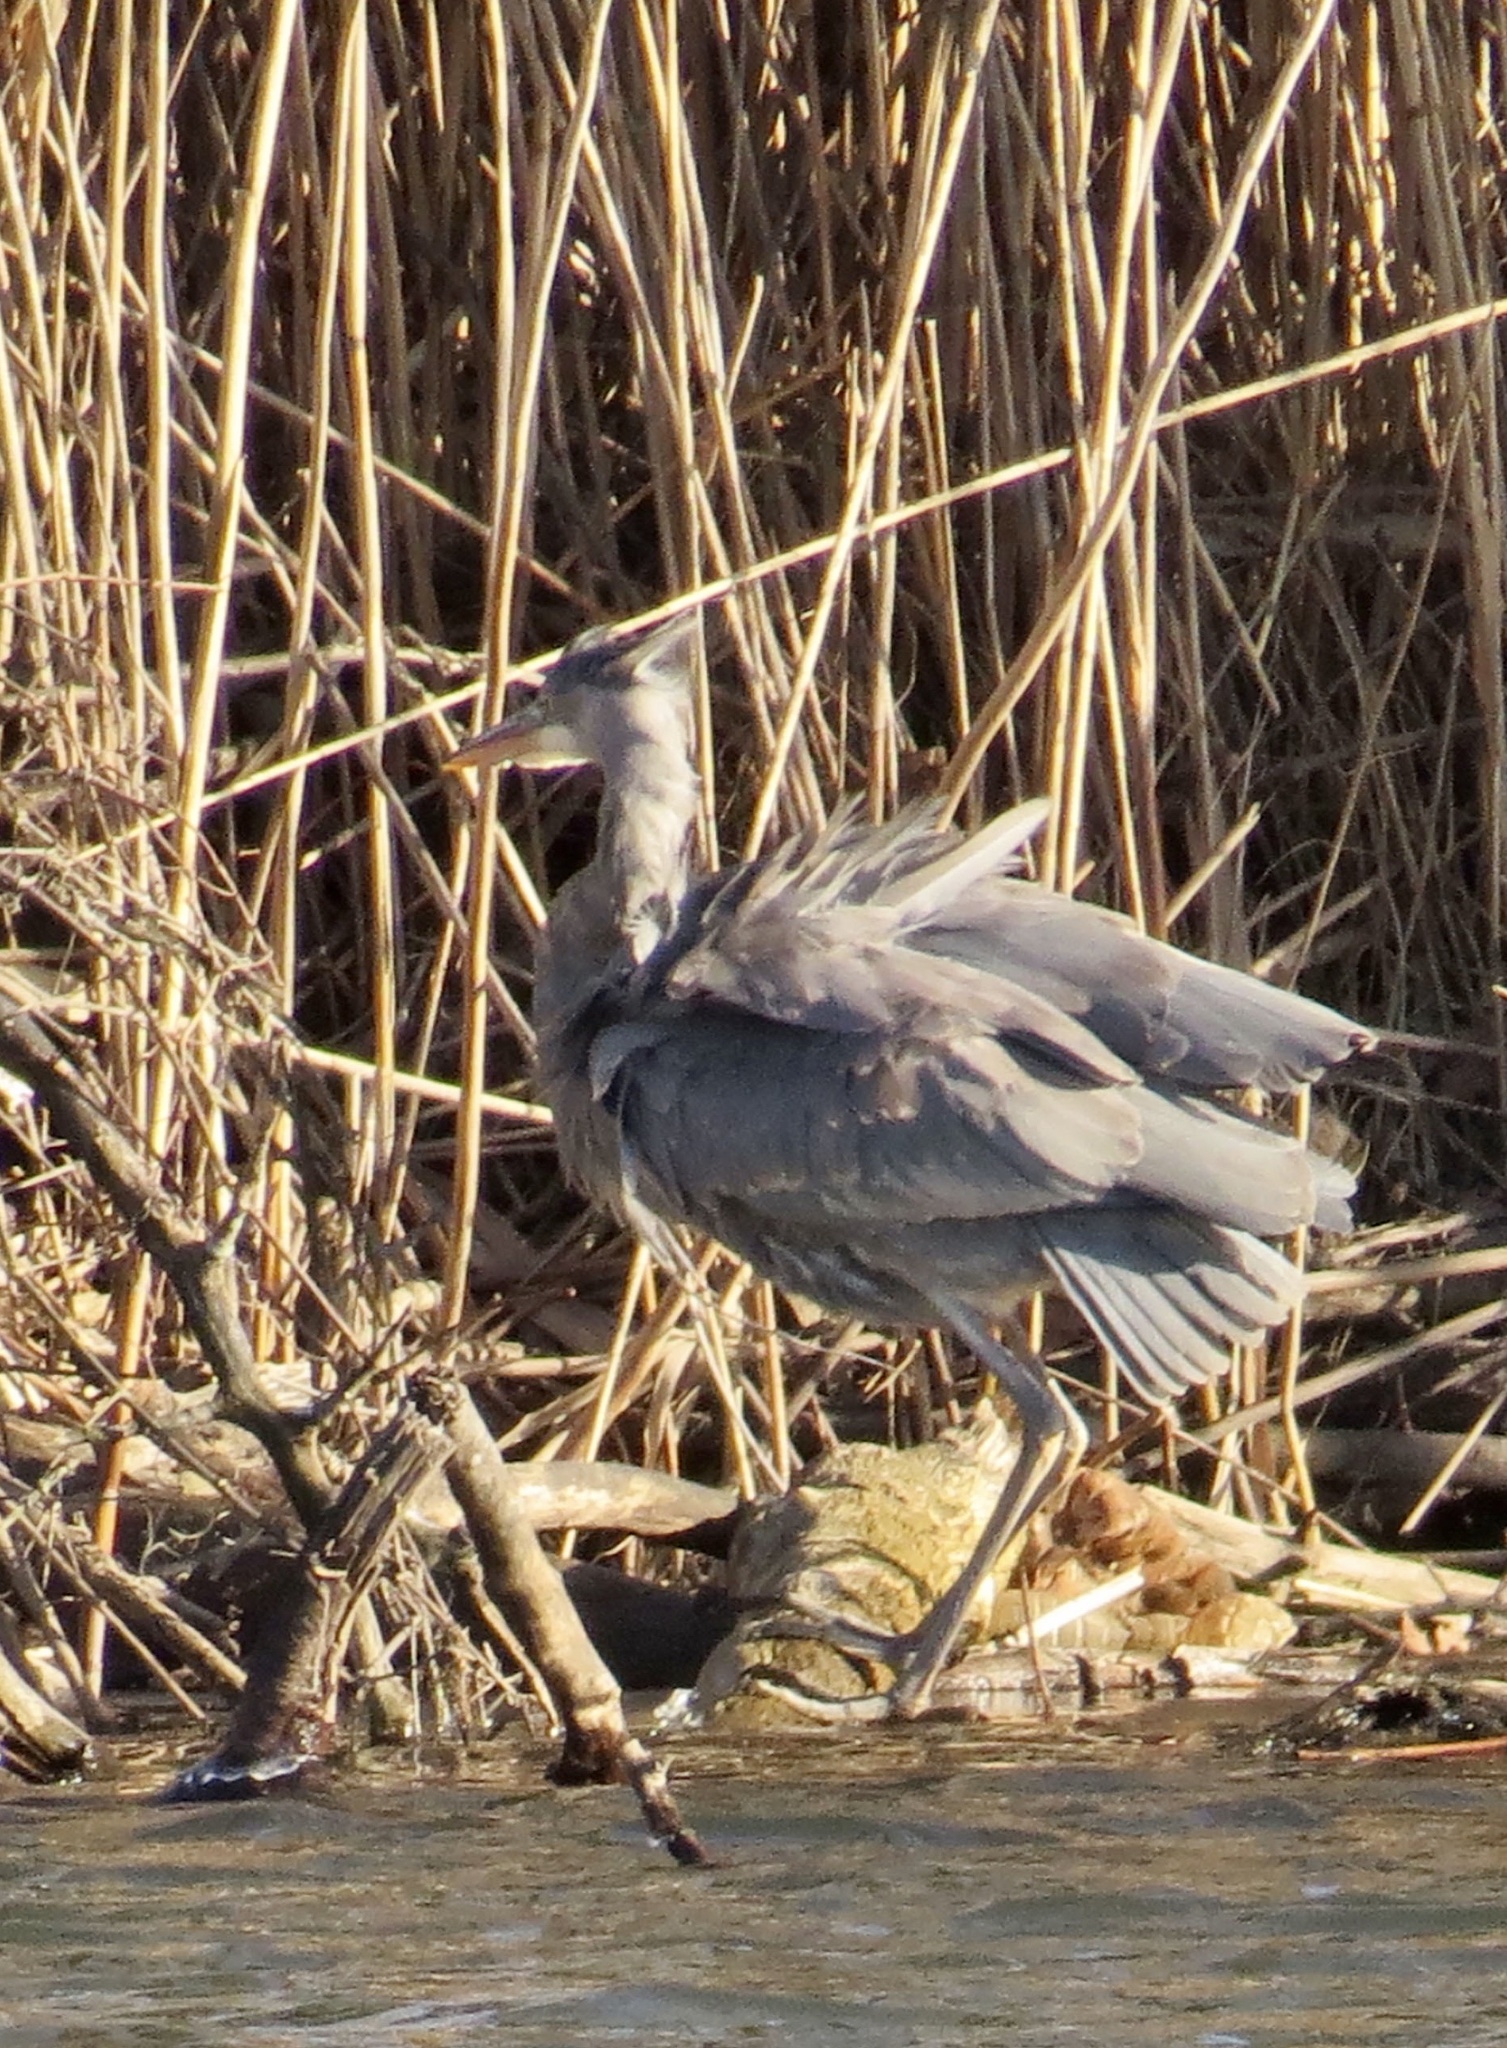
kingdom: Animalia
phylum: Chordata
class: Aves
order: Pelecaniformes
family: Ardeidae
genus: Ardea
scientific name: Ardea herodias
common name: Great blue heron
